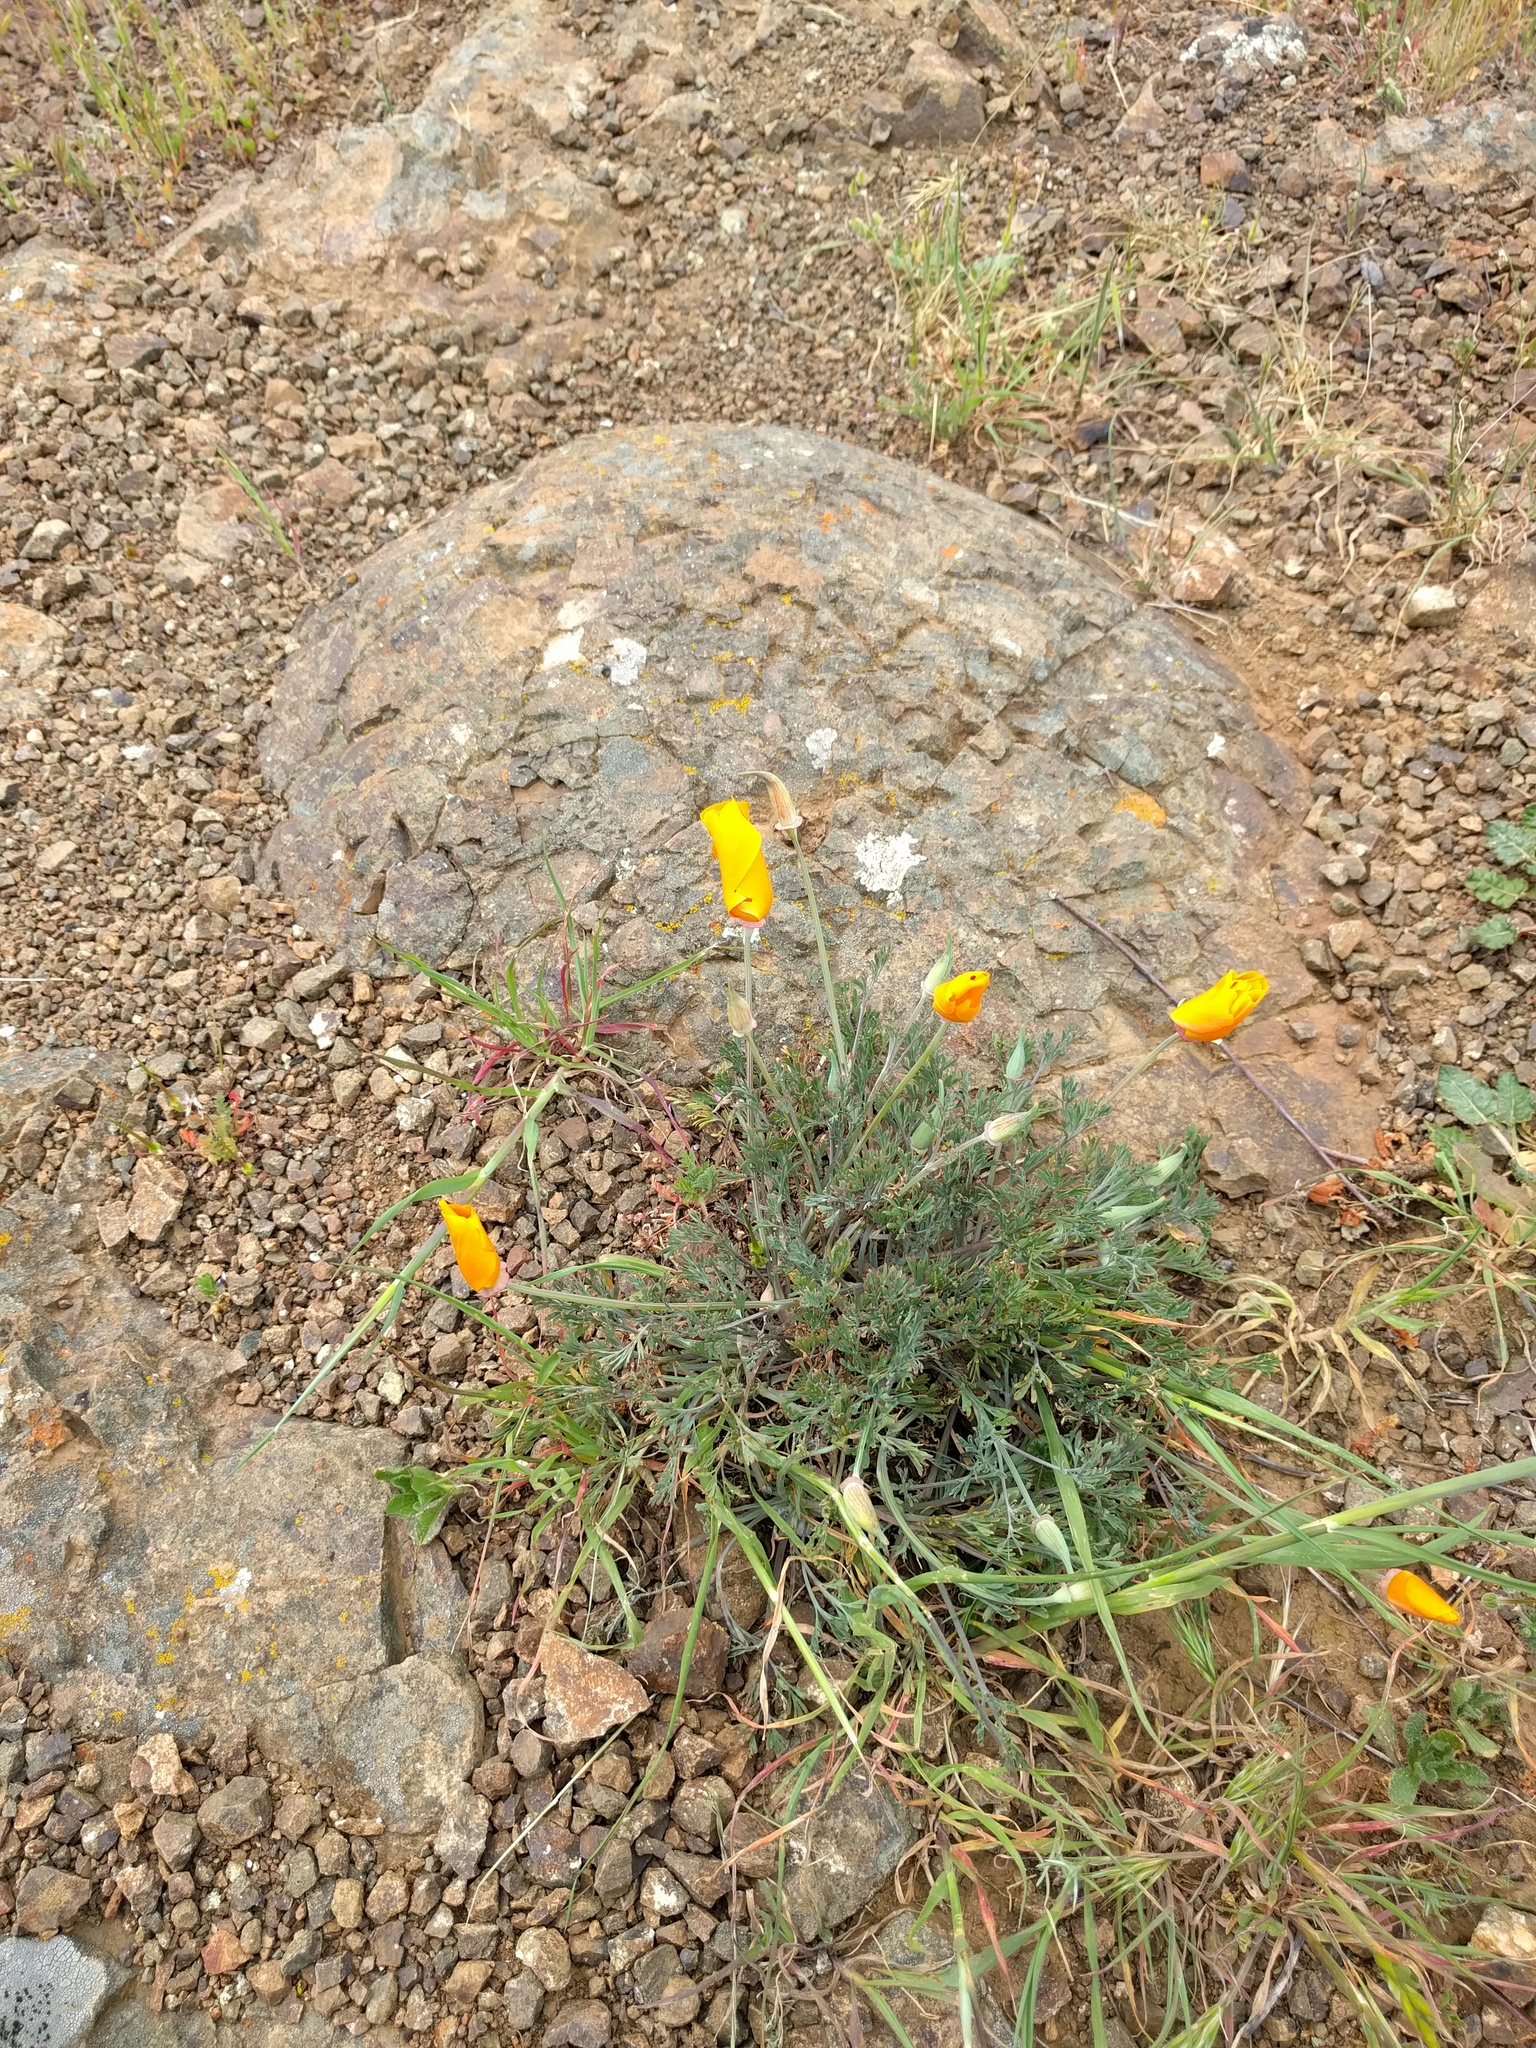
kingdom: Plantae
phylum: Tracheophyta
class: Magnoliopsida
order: Ranunculales
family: Papaveraceae
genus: Eschscholzia
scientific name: Eschscholzia californica
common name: California poppy
